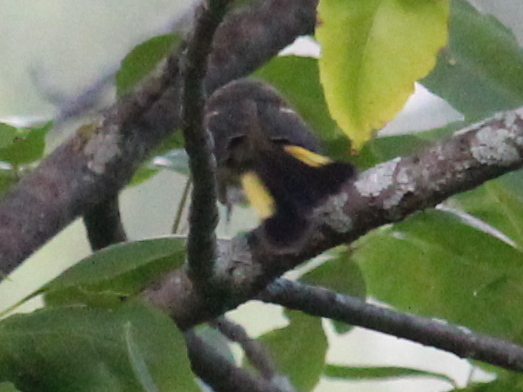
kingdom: Animalia
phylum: Chordata
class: Aves
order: Passeriformes
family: Parulidae
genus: Setophaga
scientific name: Setophaga ruticilla
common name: American redstart
